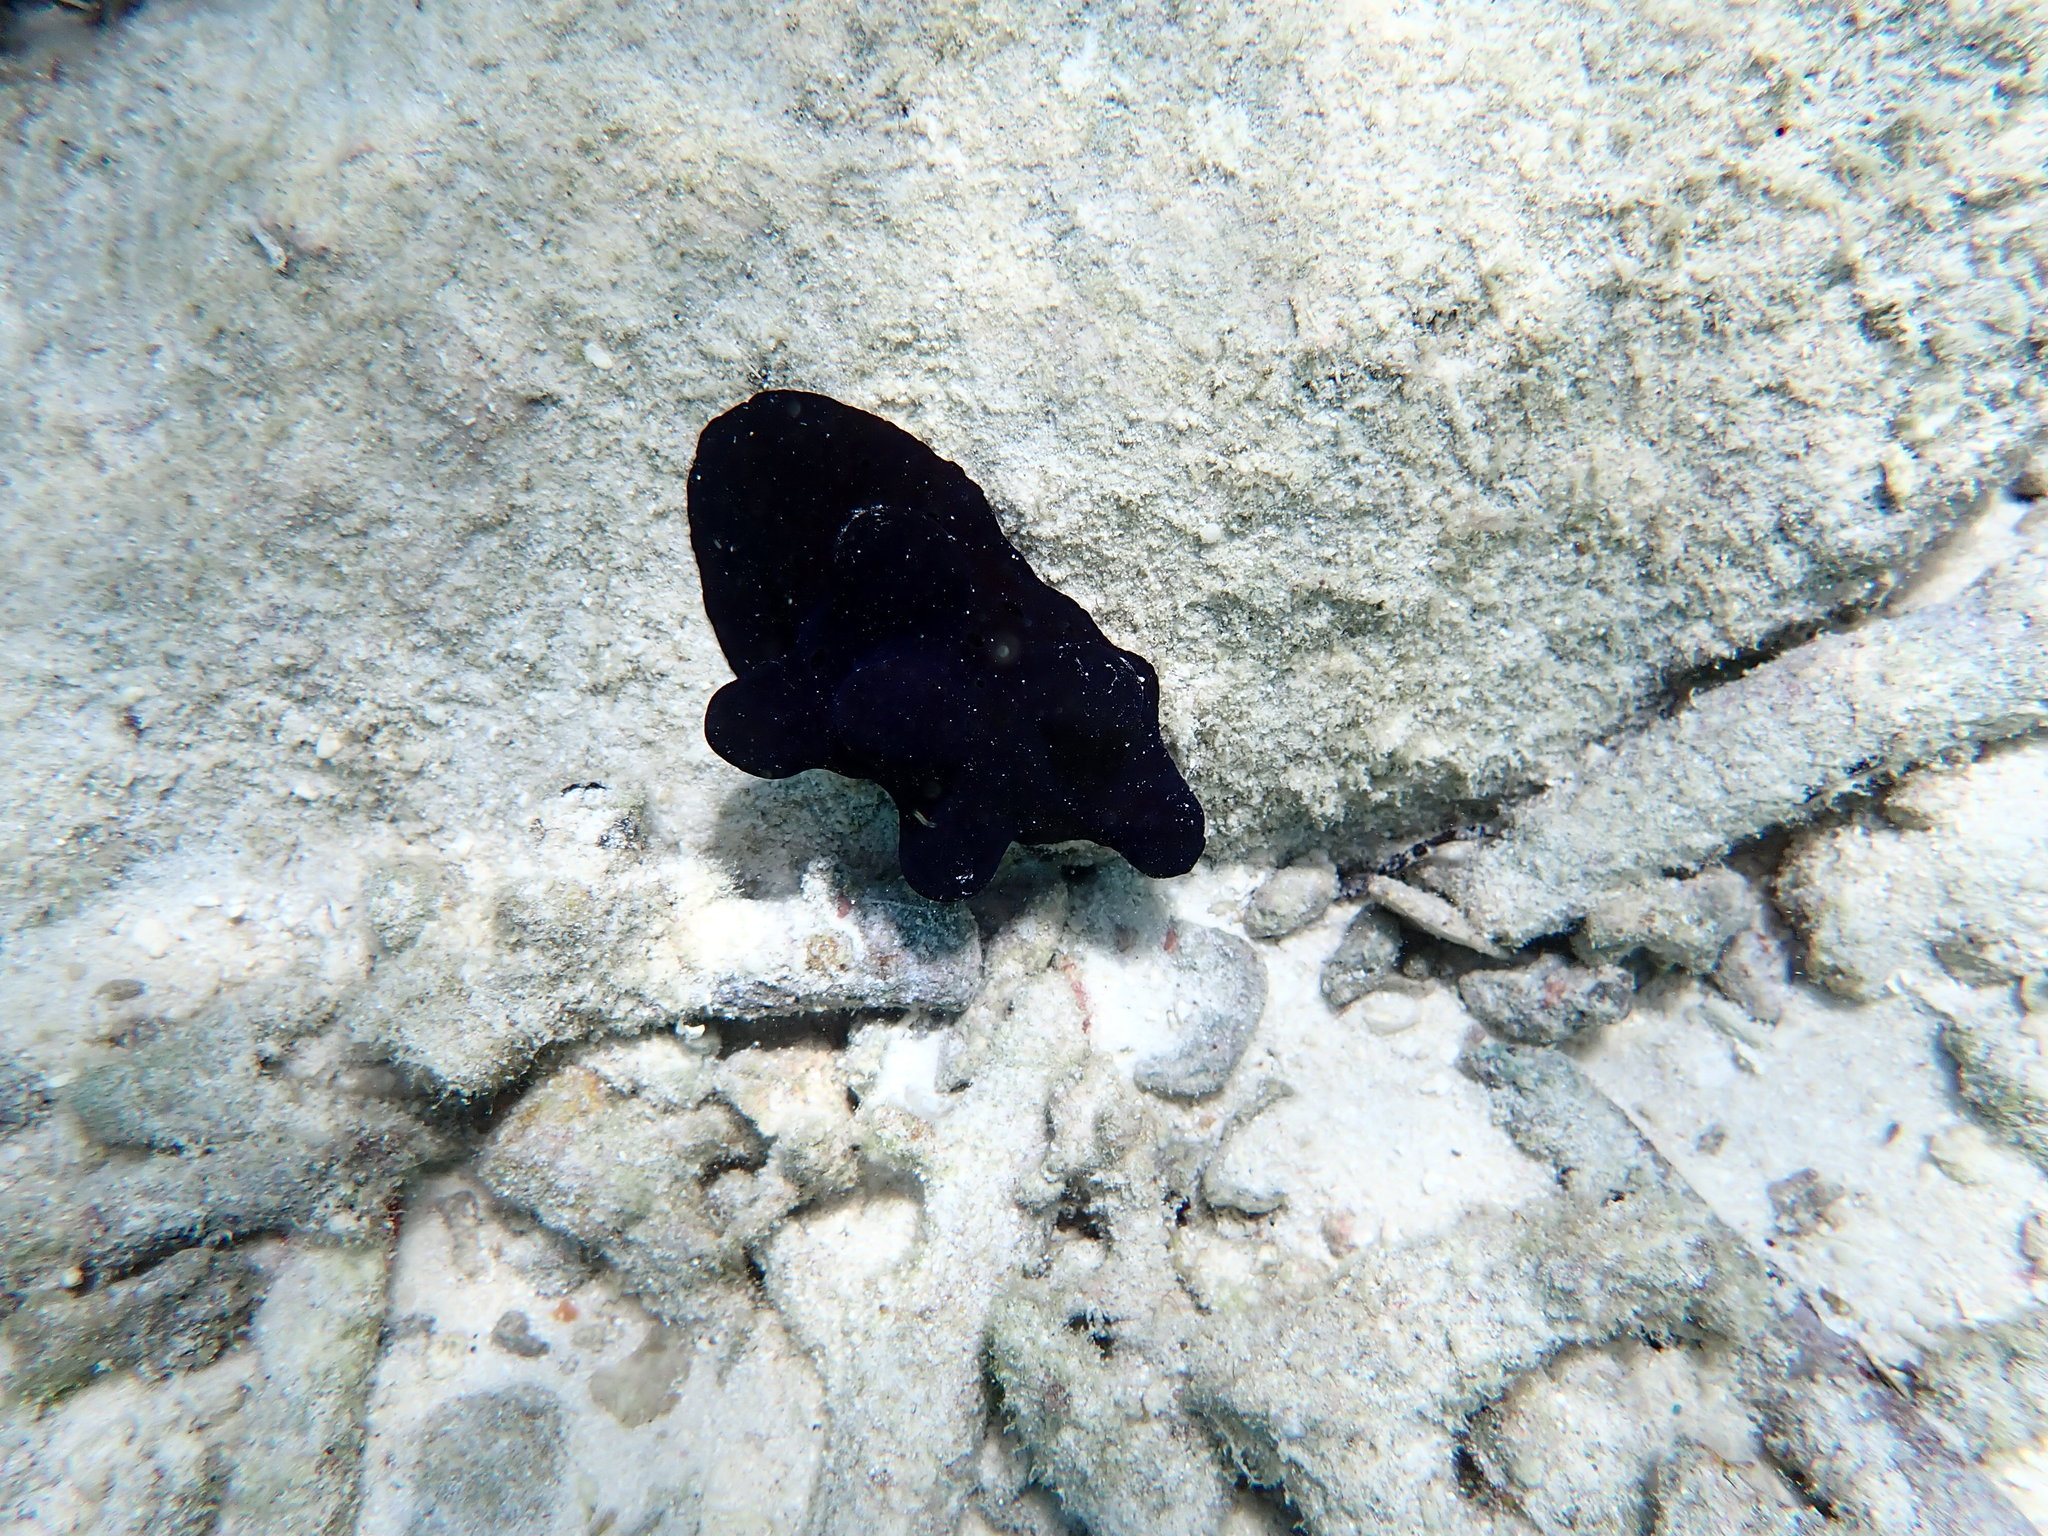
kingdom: Animalia
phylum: Mollusca
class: Gastropoda
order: Littorinimorpha
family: Velutinidae
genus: Coriocella
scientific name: Coriocella hibyae
